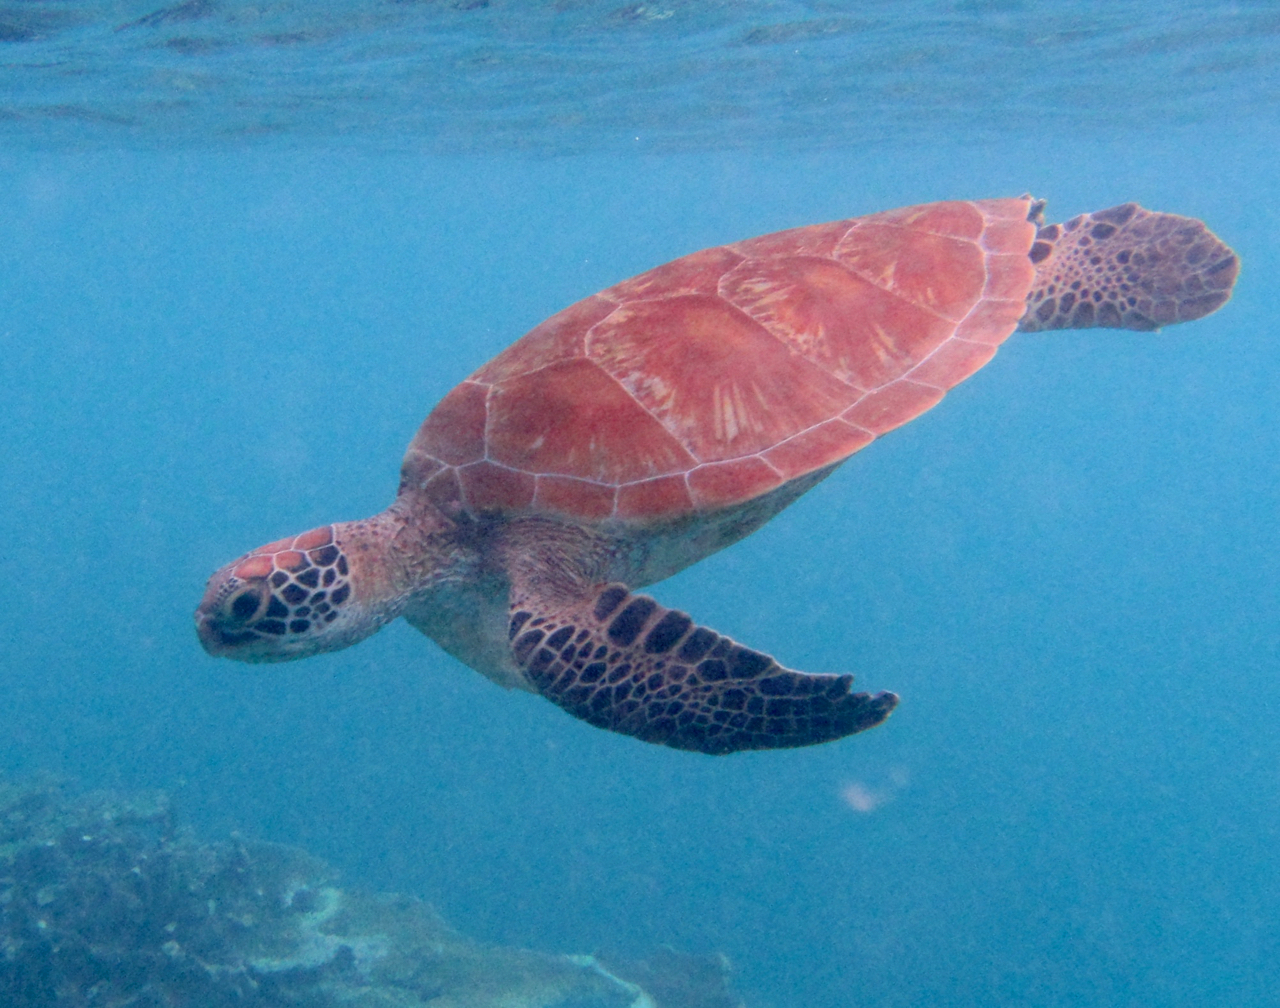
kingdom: Animalia
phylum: Chordata
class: Testudines
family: Cheloniidae
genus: Chelonia
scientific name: Chelonia mydas
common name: Green turtle
